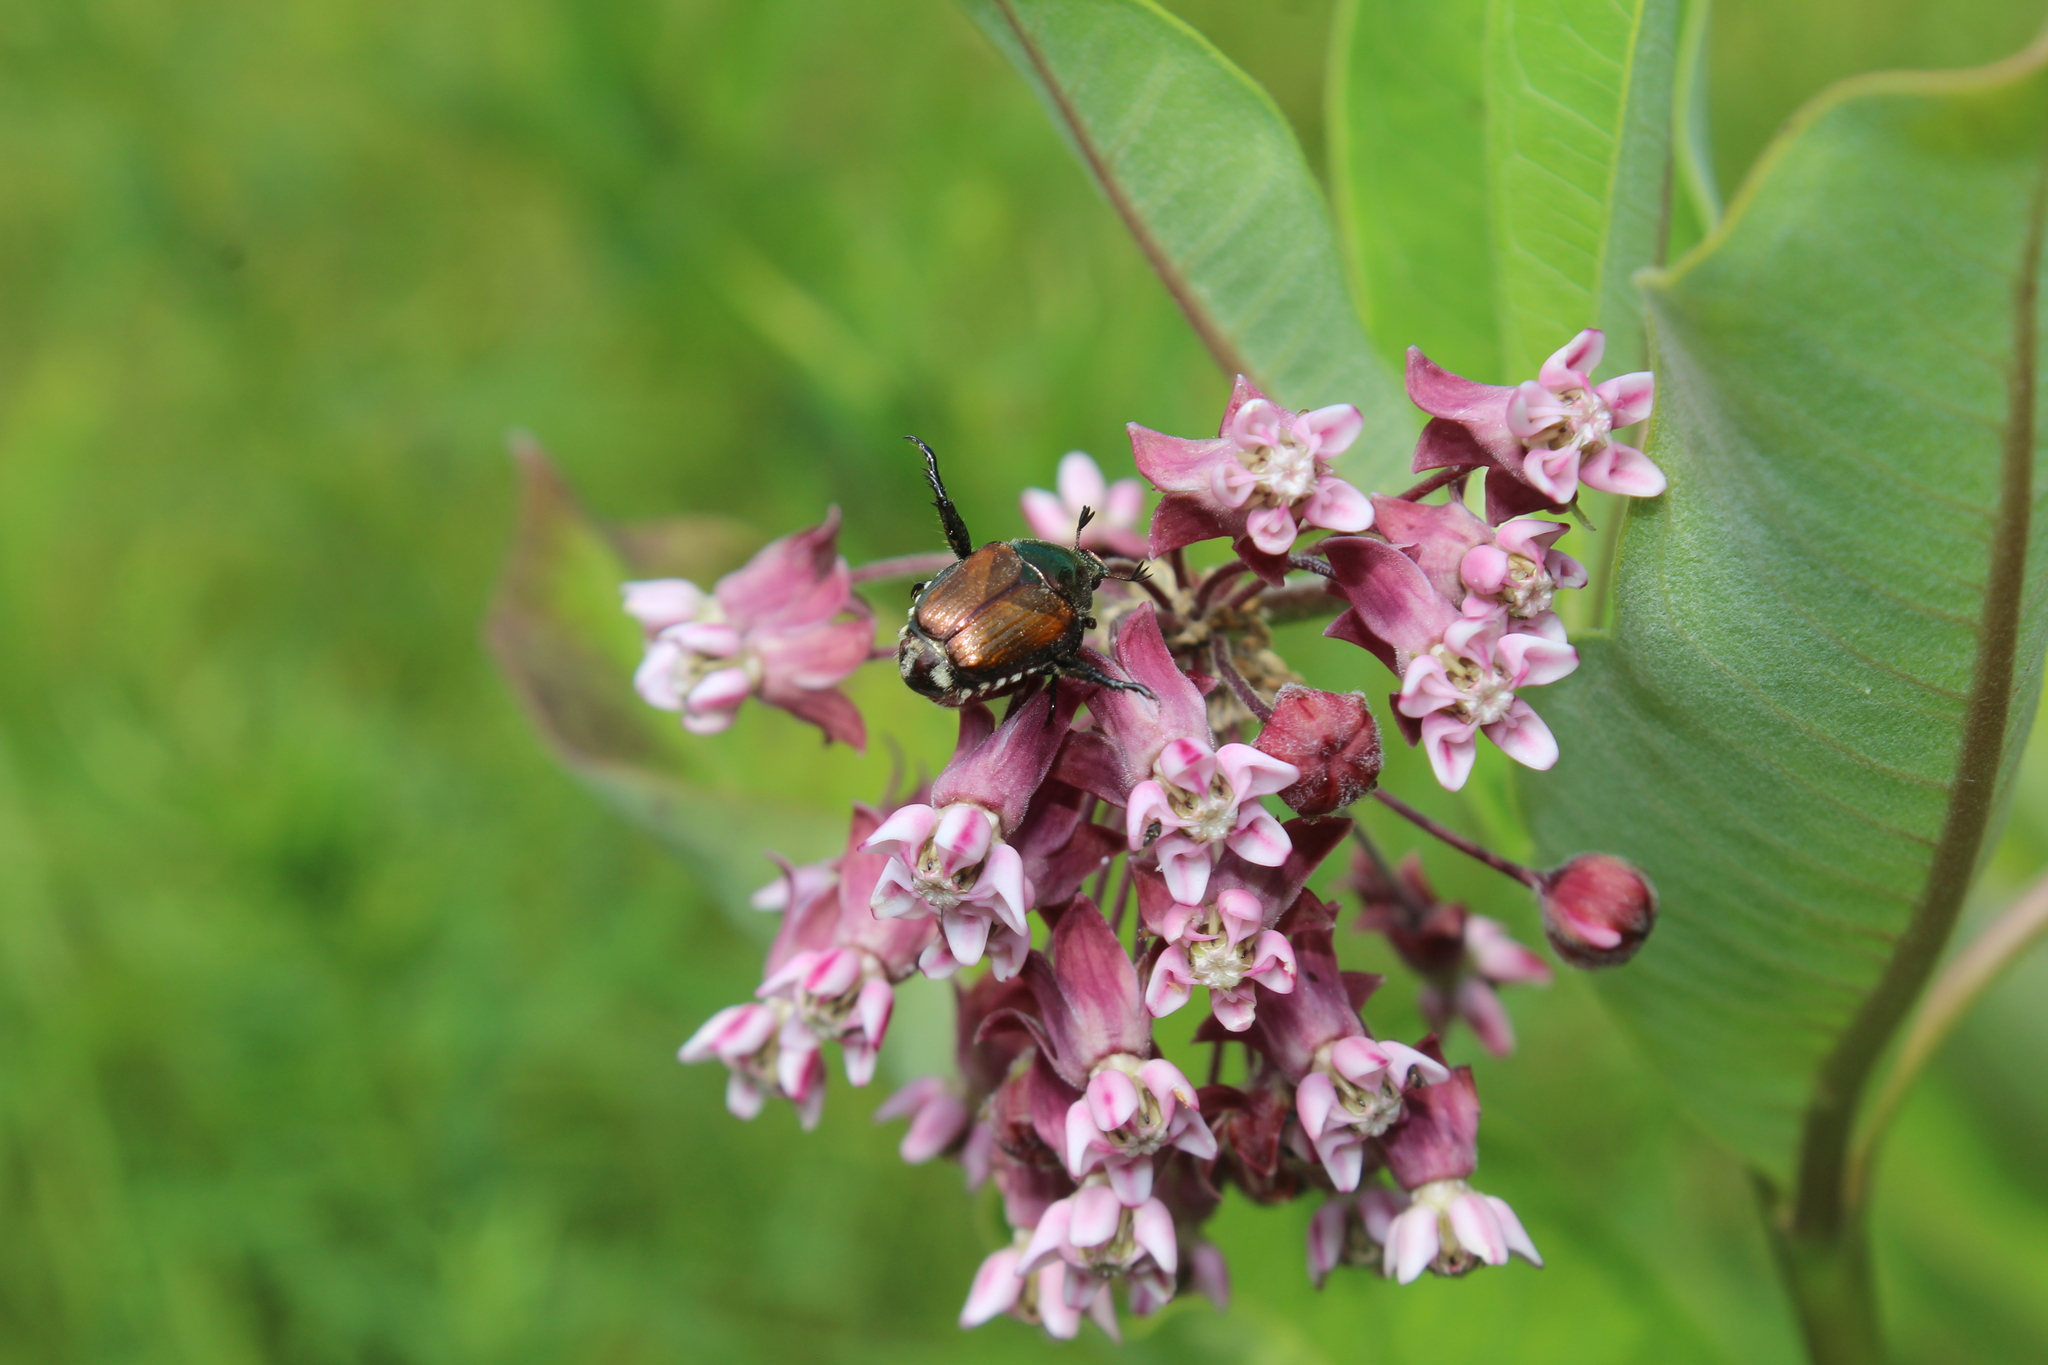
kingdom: Animalia
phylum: Arthropoda
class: Insecta
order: Coleoptera
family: Scarabaeidae
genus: Popillia
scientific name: Popillia japonica
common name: Japanese beetle
